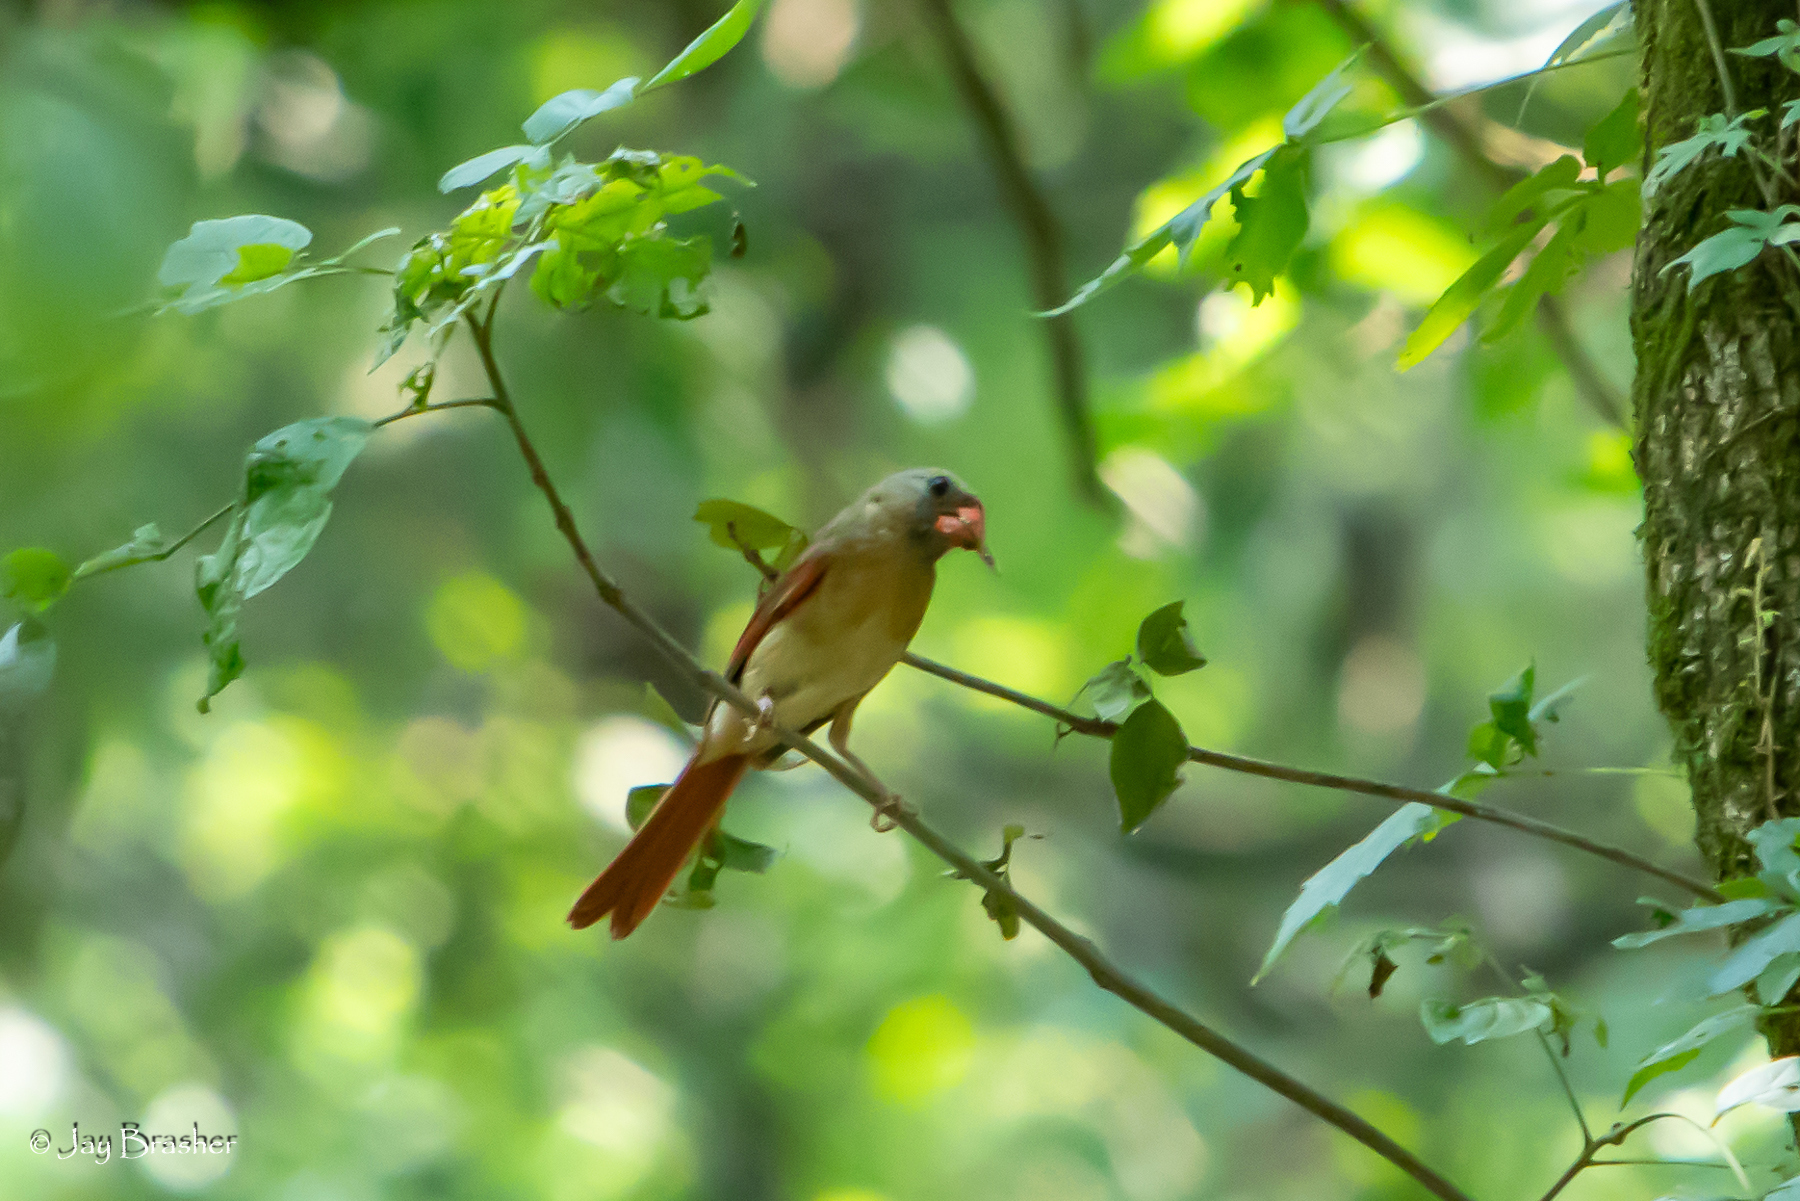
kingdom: Animalia
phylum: Chordata
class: Aves
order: Passeriformes
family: Cardinalidae
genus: Cardinalis
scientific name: Cardinalis cardinalis
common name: Northern cardinal
